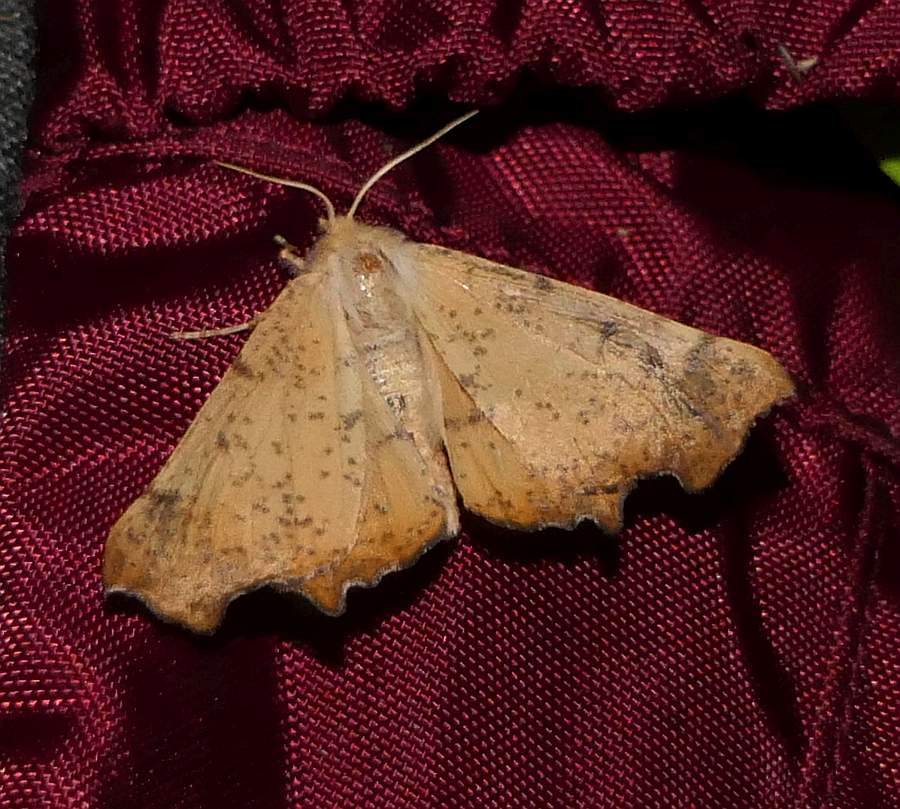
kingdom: Animalia
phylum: Arthropoda
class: Insecta
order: Lepidoptera
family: Geometridae
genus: Ennomos
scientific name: Ennomos magnaria
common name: Maple spanworm
